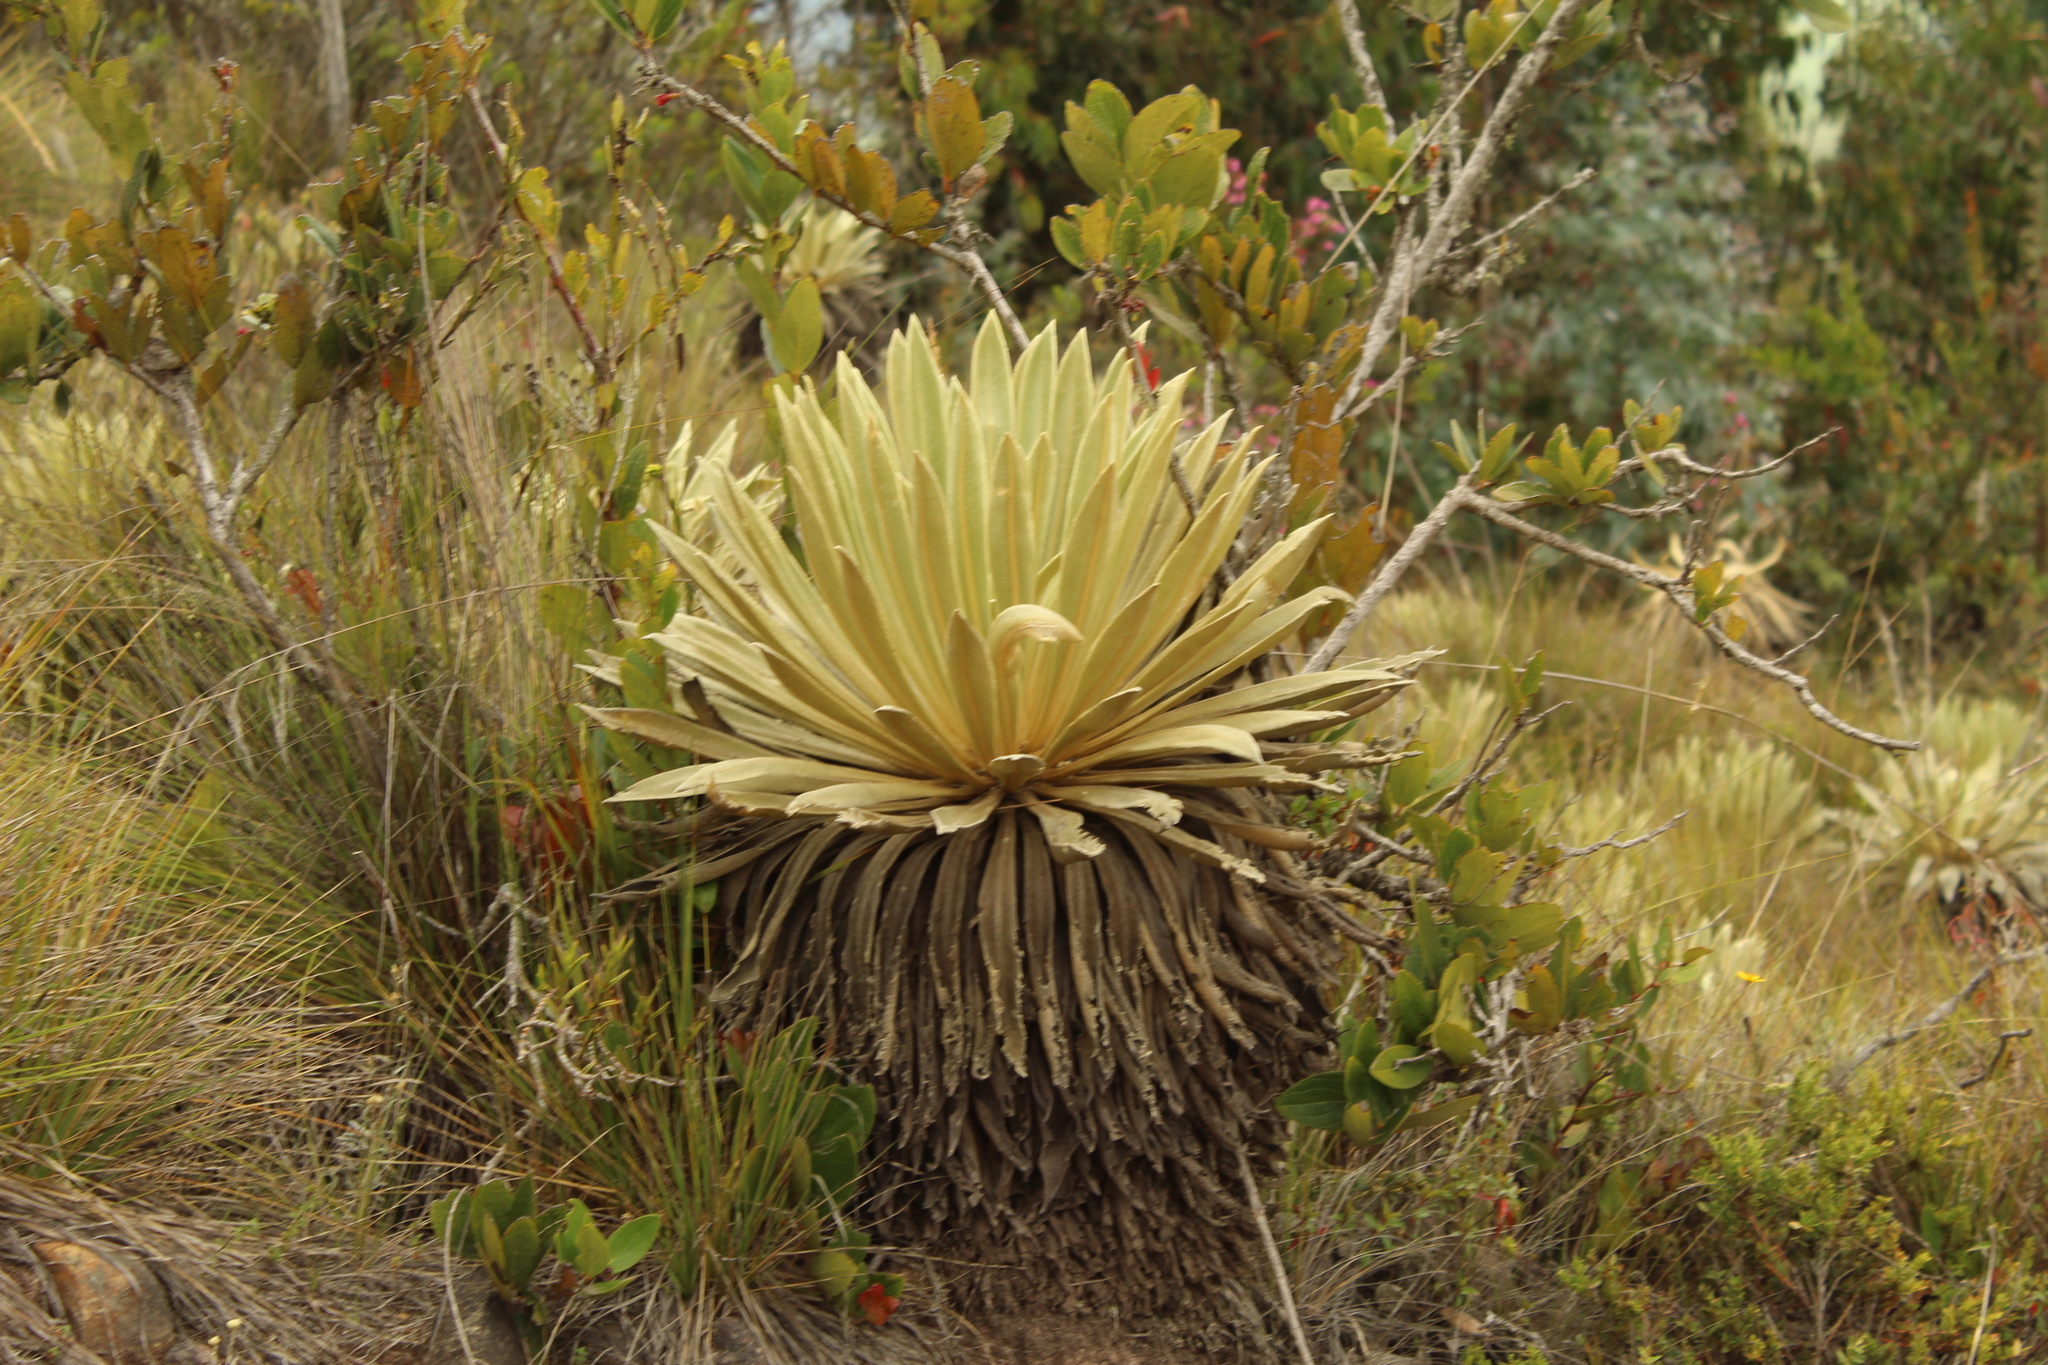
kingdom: Plantae
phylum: Tracheophyta
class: Magnoliopsida
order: Asterales
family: Asteraceae
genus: Espeletia
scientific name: Espeletia muiska
